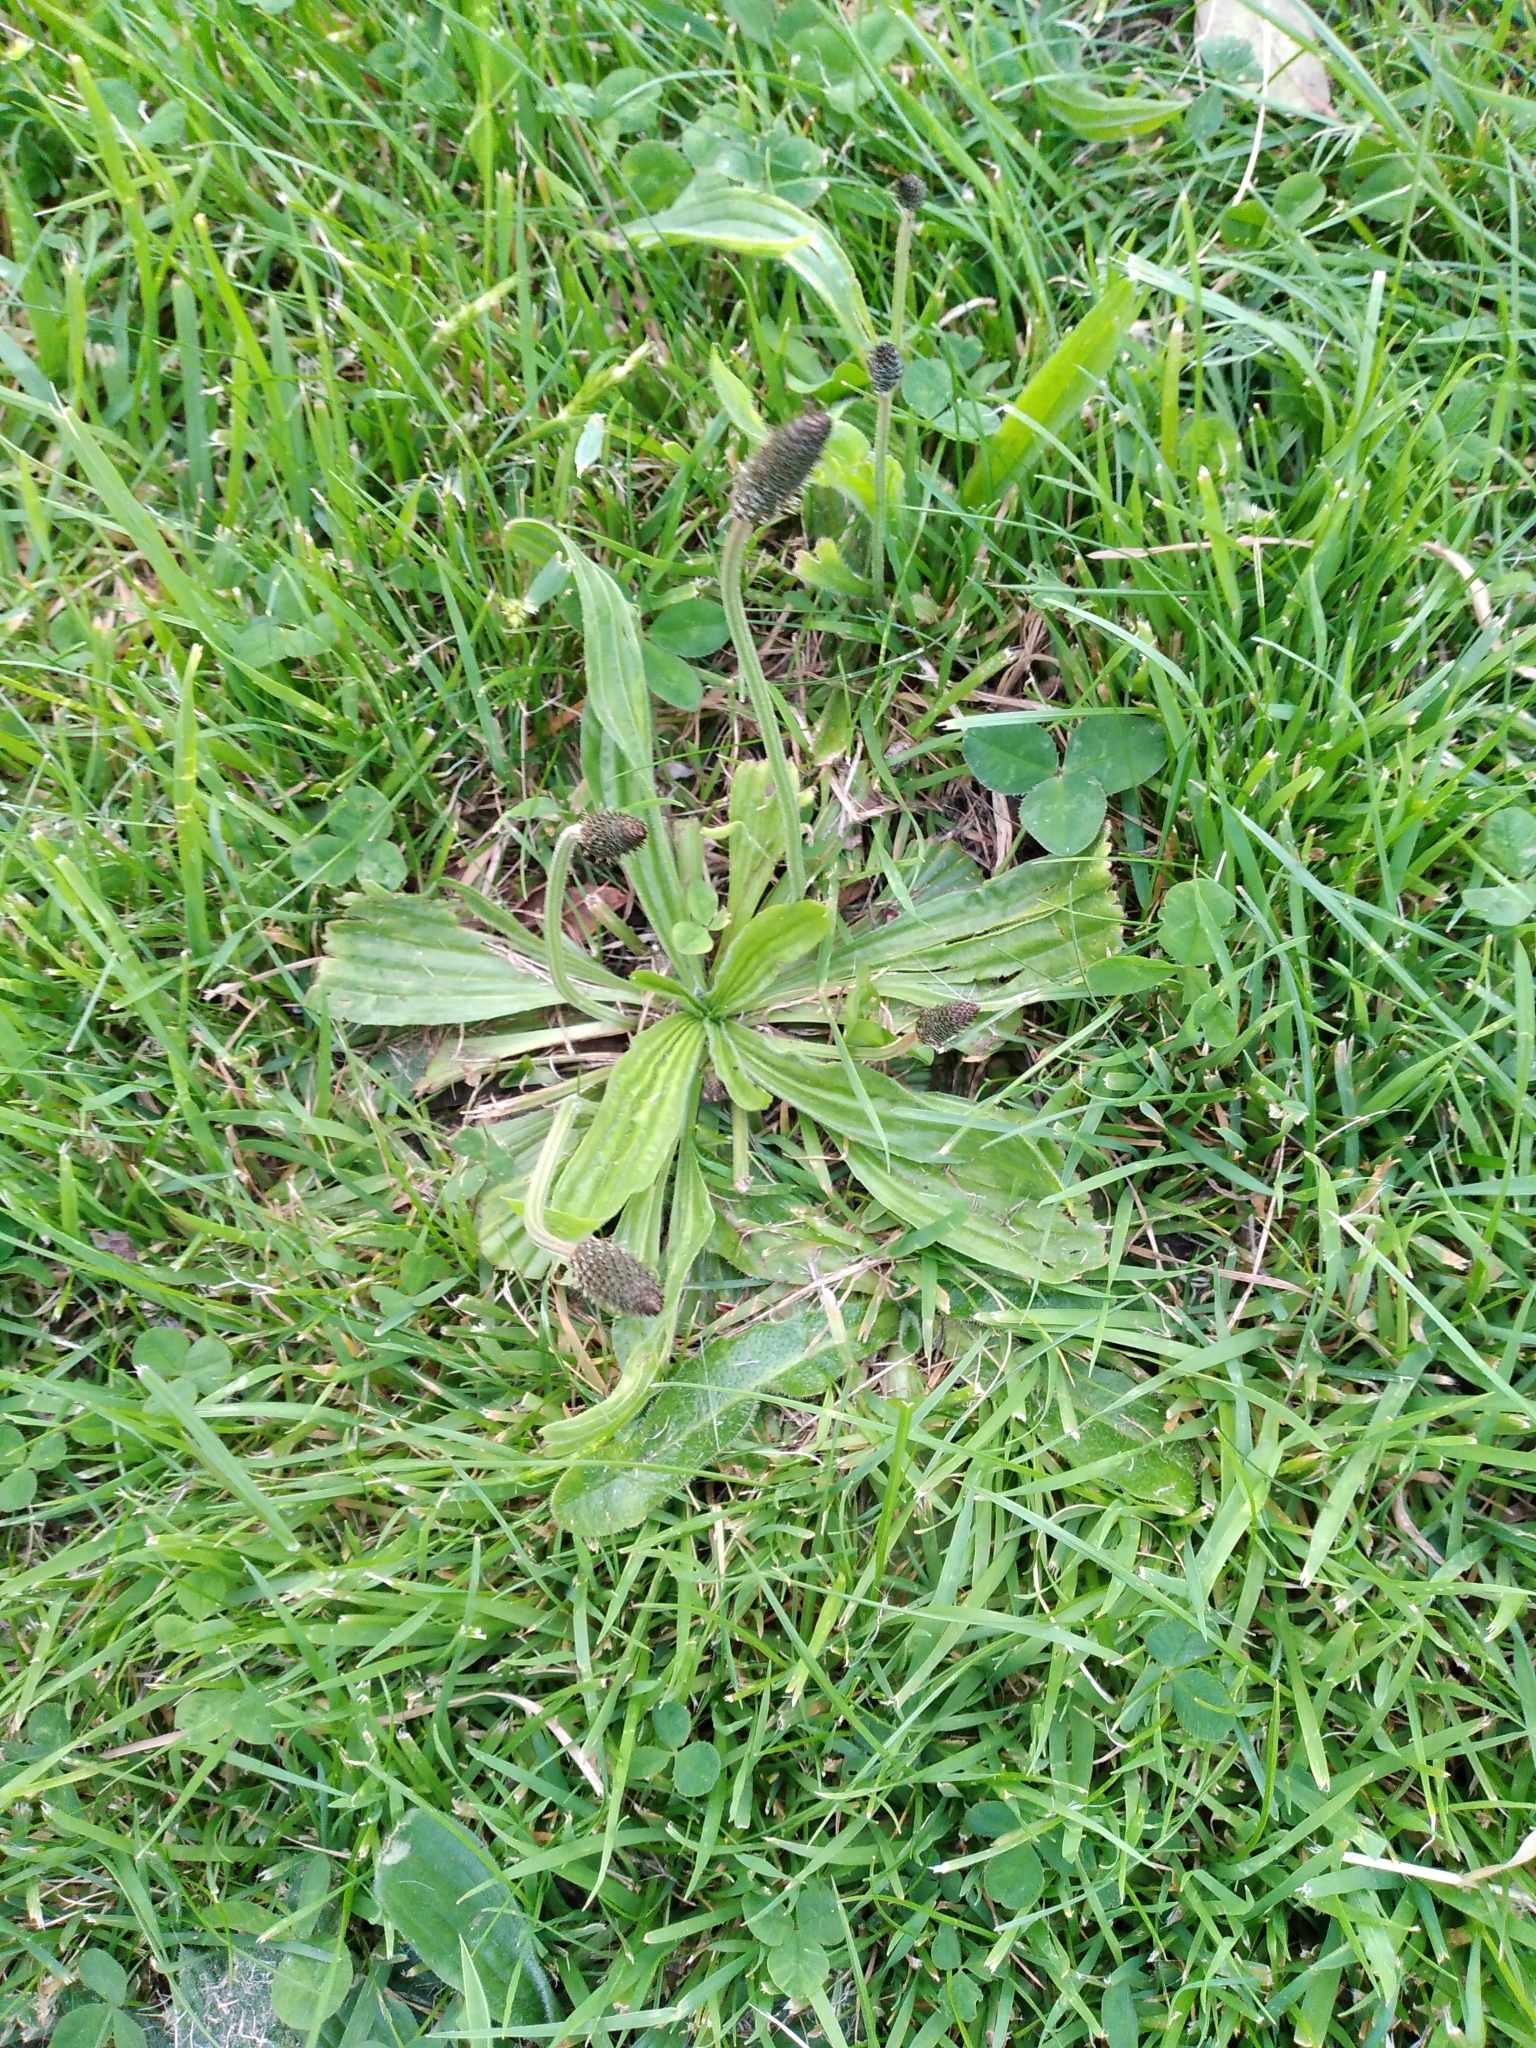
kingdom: Plantae
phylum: Tracheophyta
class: Magnoliopsida
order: Lamiales
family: Plantaginaceae
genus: Plantago
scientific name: Plantago lanceolata
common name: Ribwort plantain
